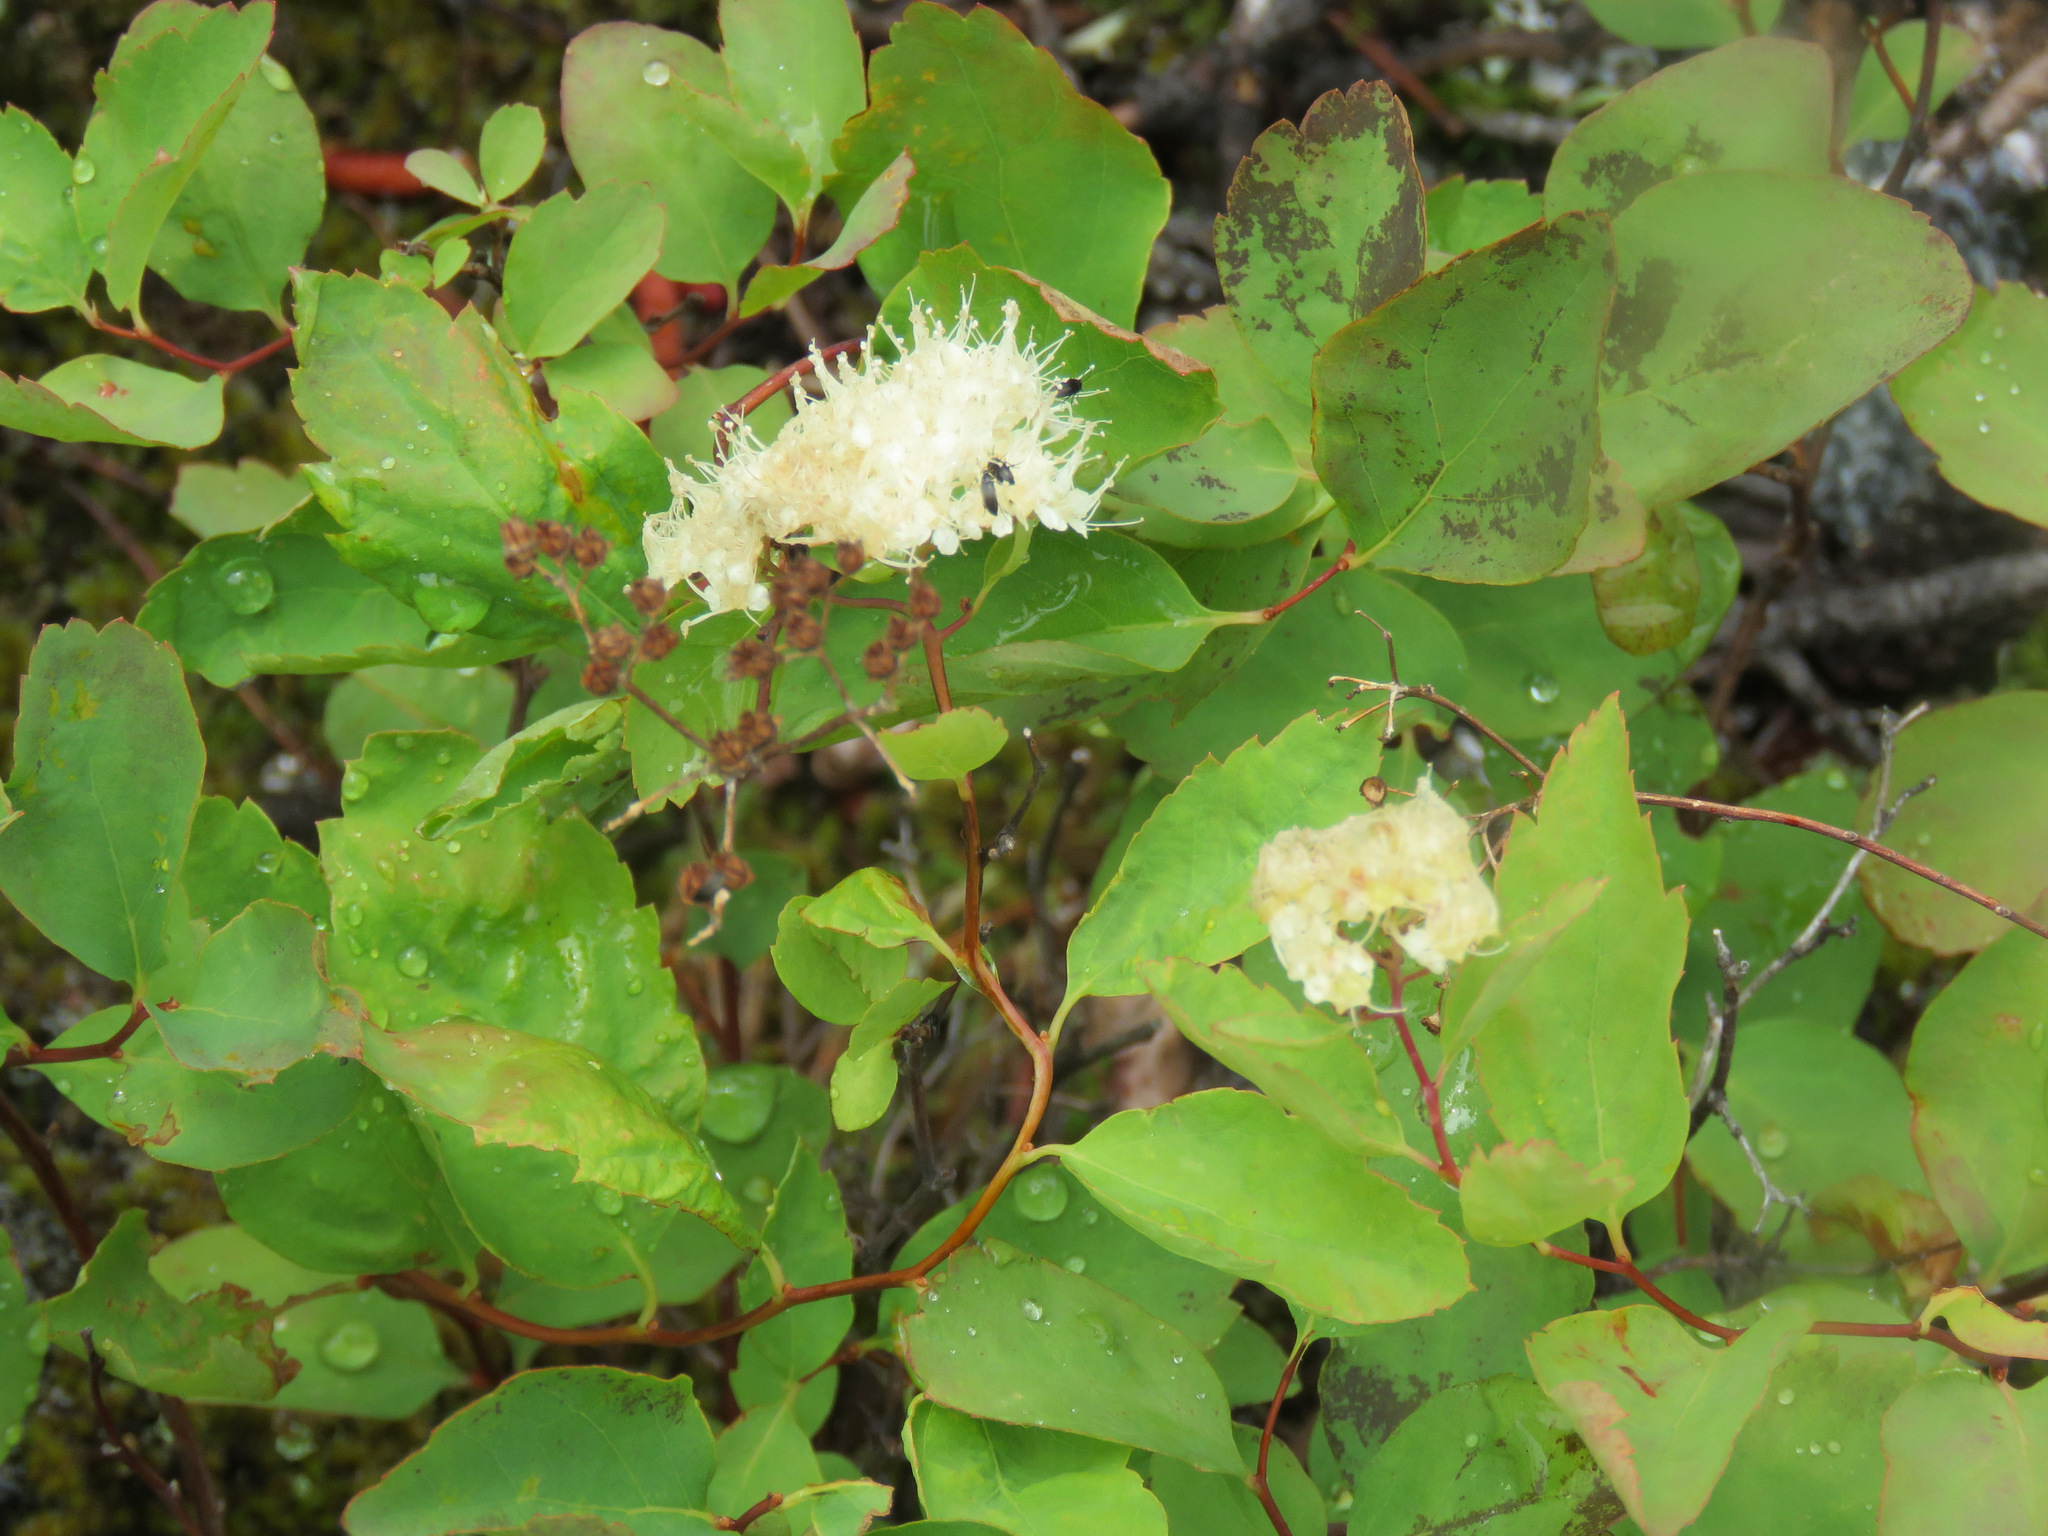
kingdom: Plantae
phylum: Tracheophyta
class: Magnoliopsida
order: Rosales
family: Rosaceae
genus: Spiraea
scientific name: Spiraea lucida
